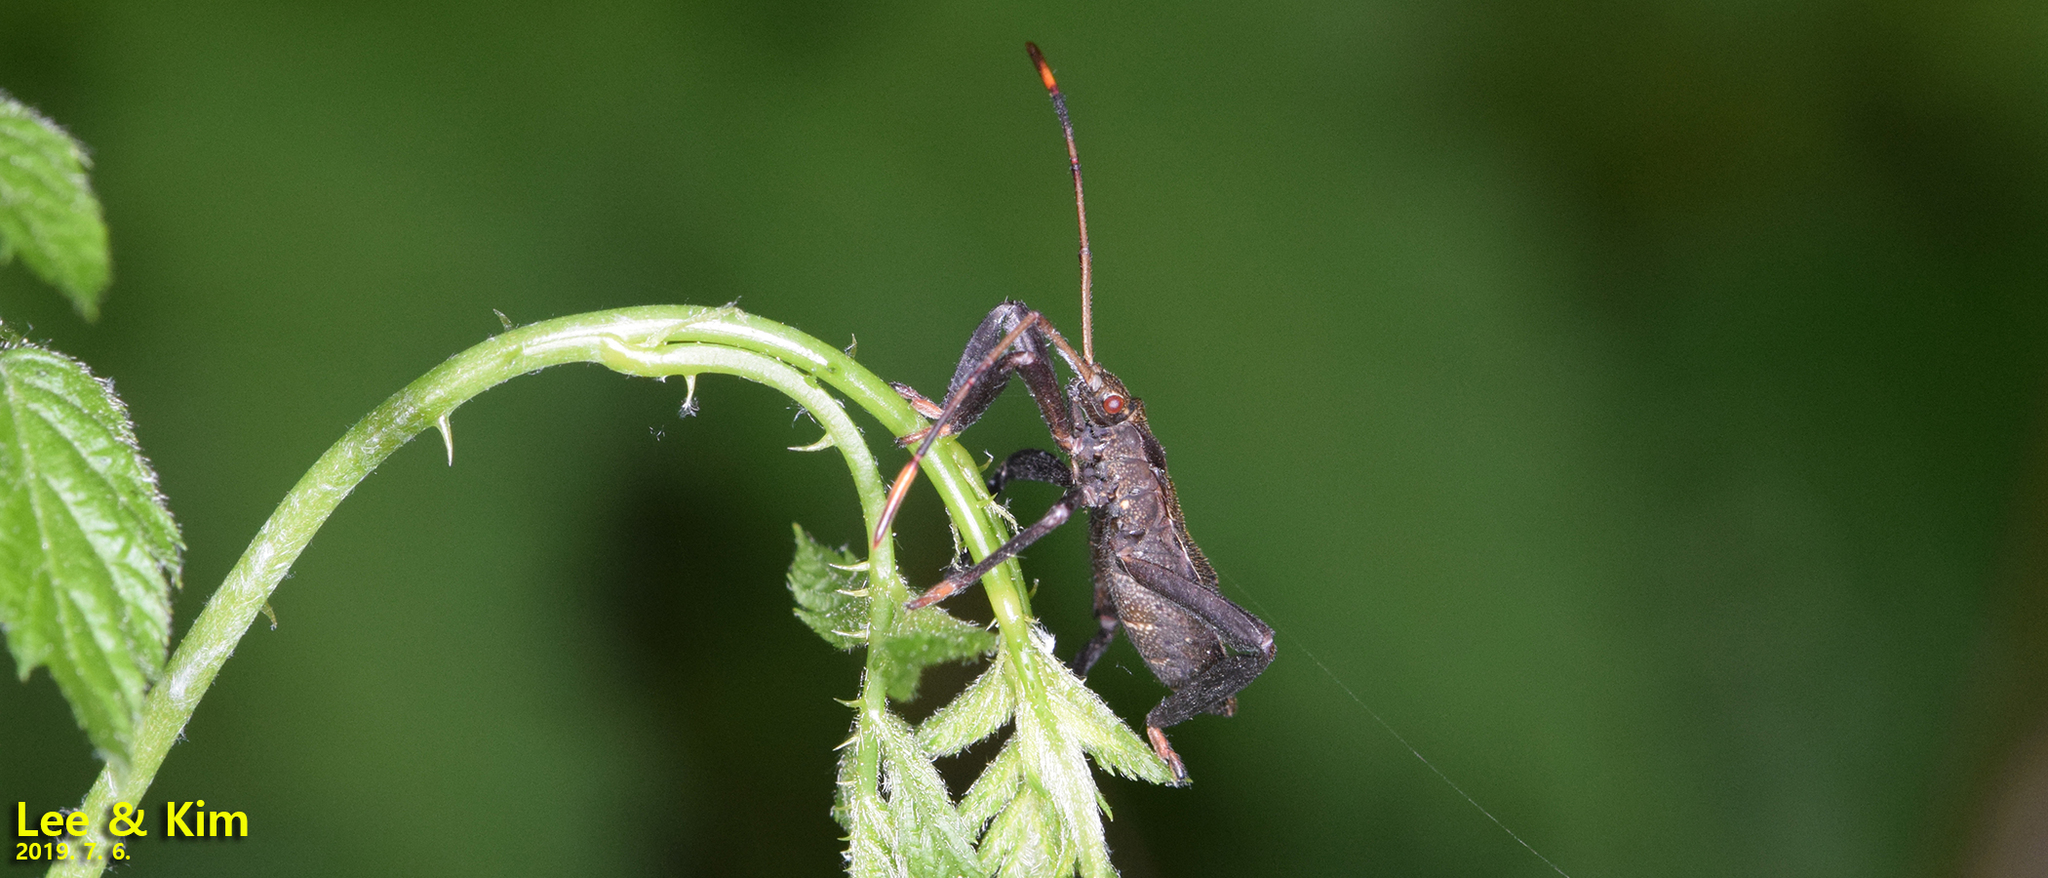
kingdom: Animalia
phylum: Arthropoda
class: Insecta
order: Hemiptera
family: Coreidae
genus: Molipteryx
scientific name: Molipteryx fuliginosa
